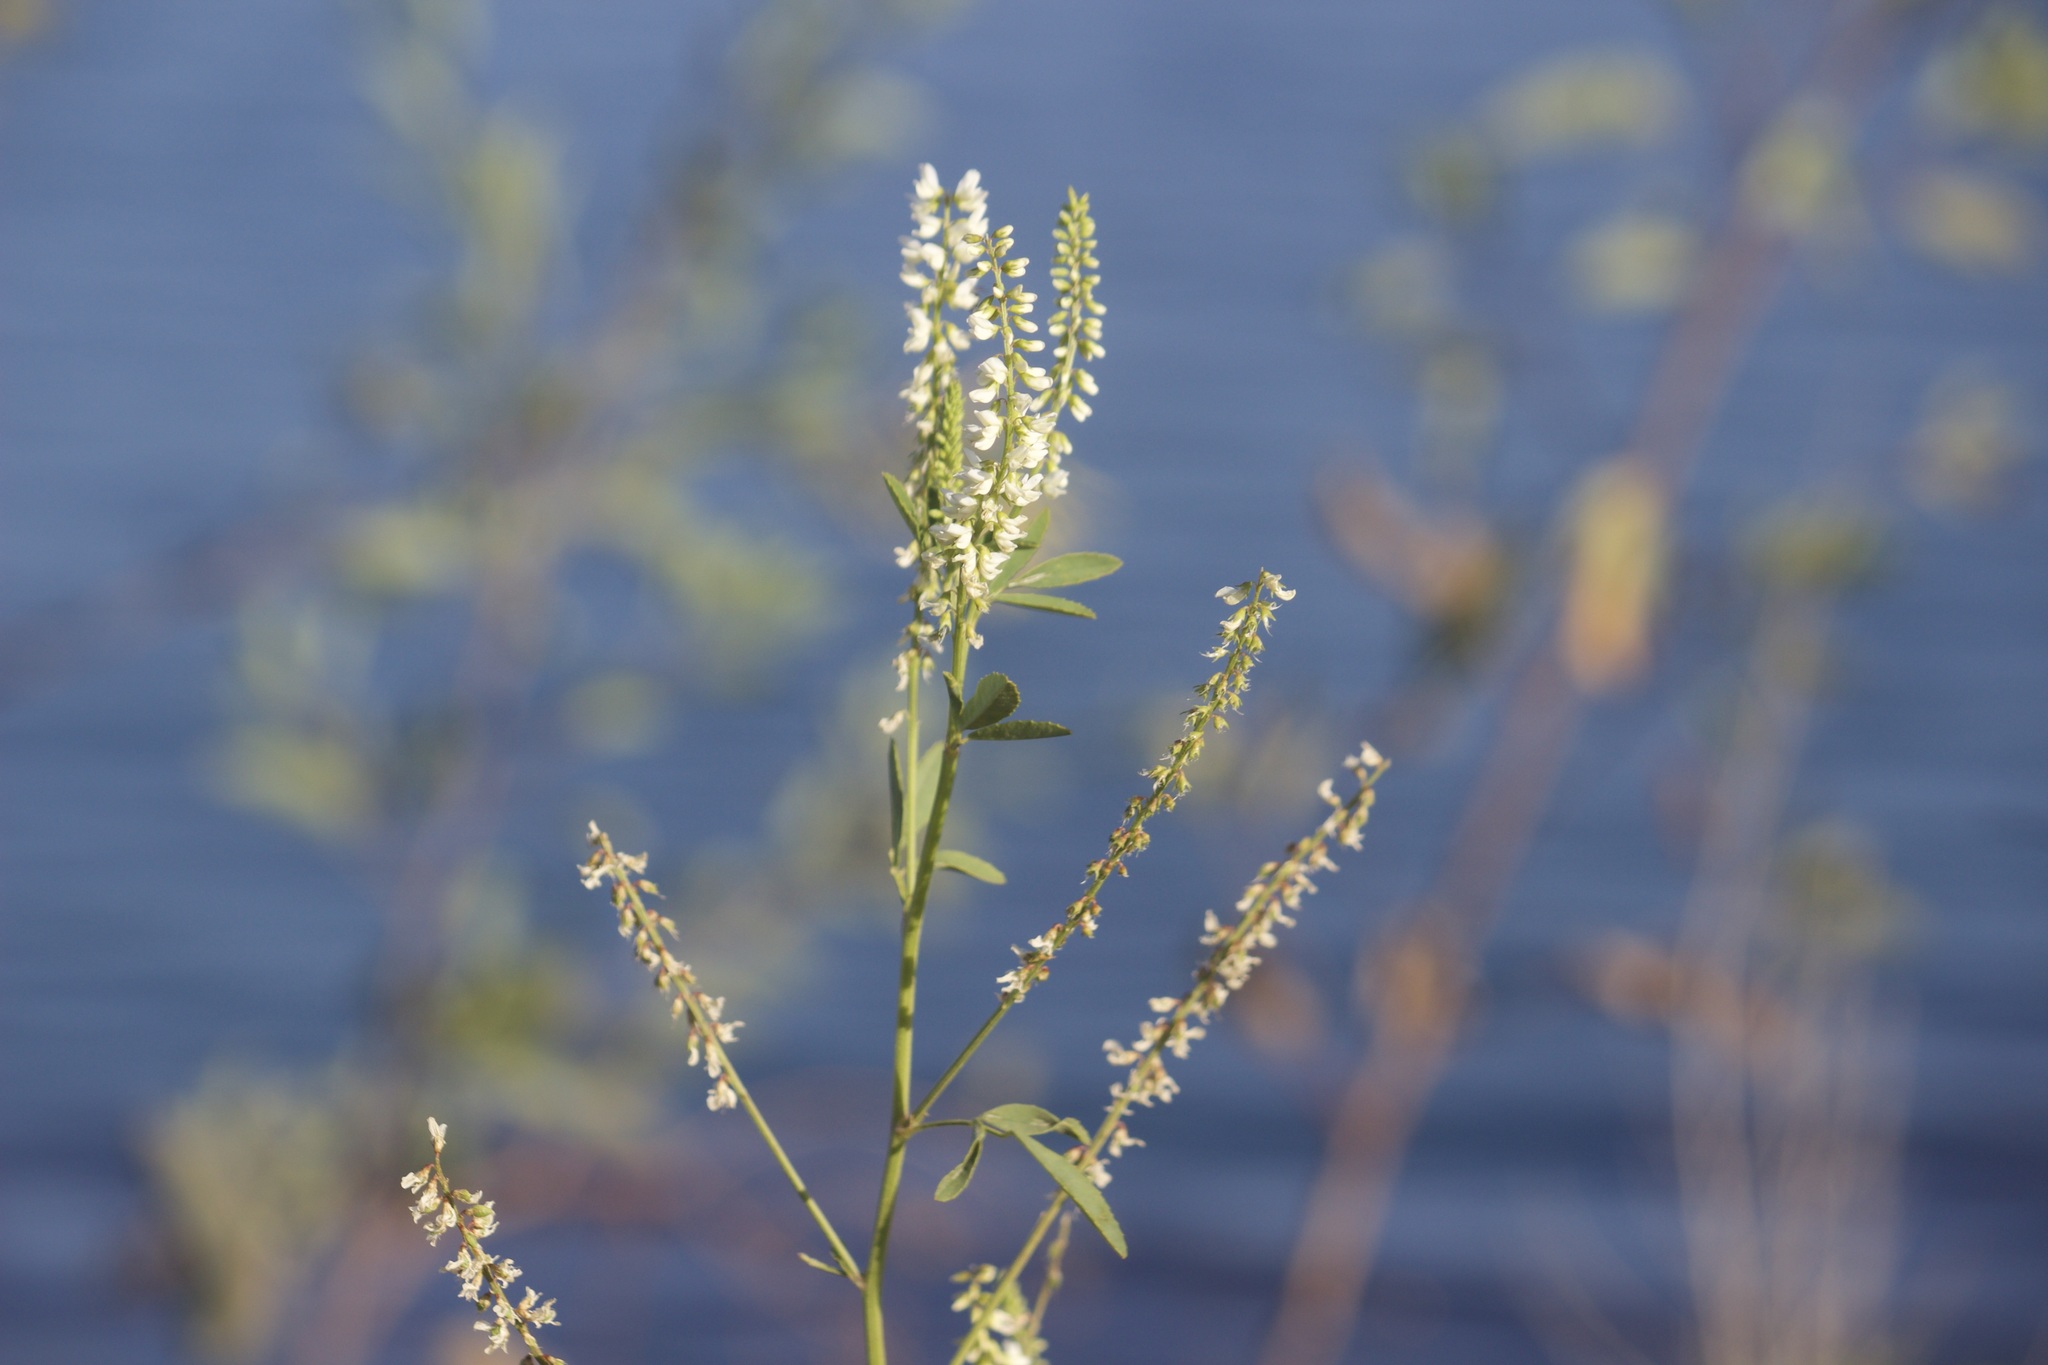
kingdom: Plantae
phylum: Tracheophyta
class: Magnoliopsida
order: Fabales
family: Fabaceae
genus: Melilotus
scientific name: Melilotus albus
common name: White melilot
